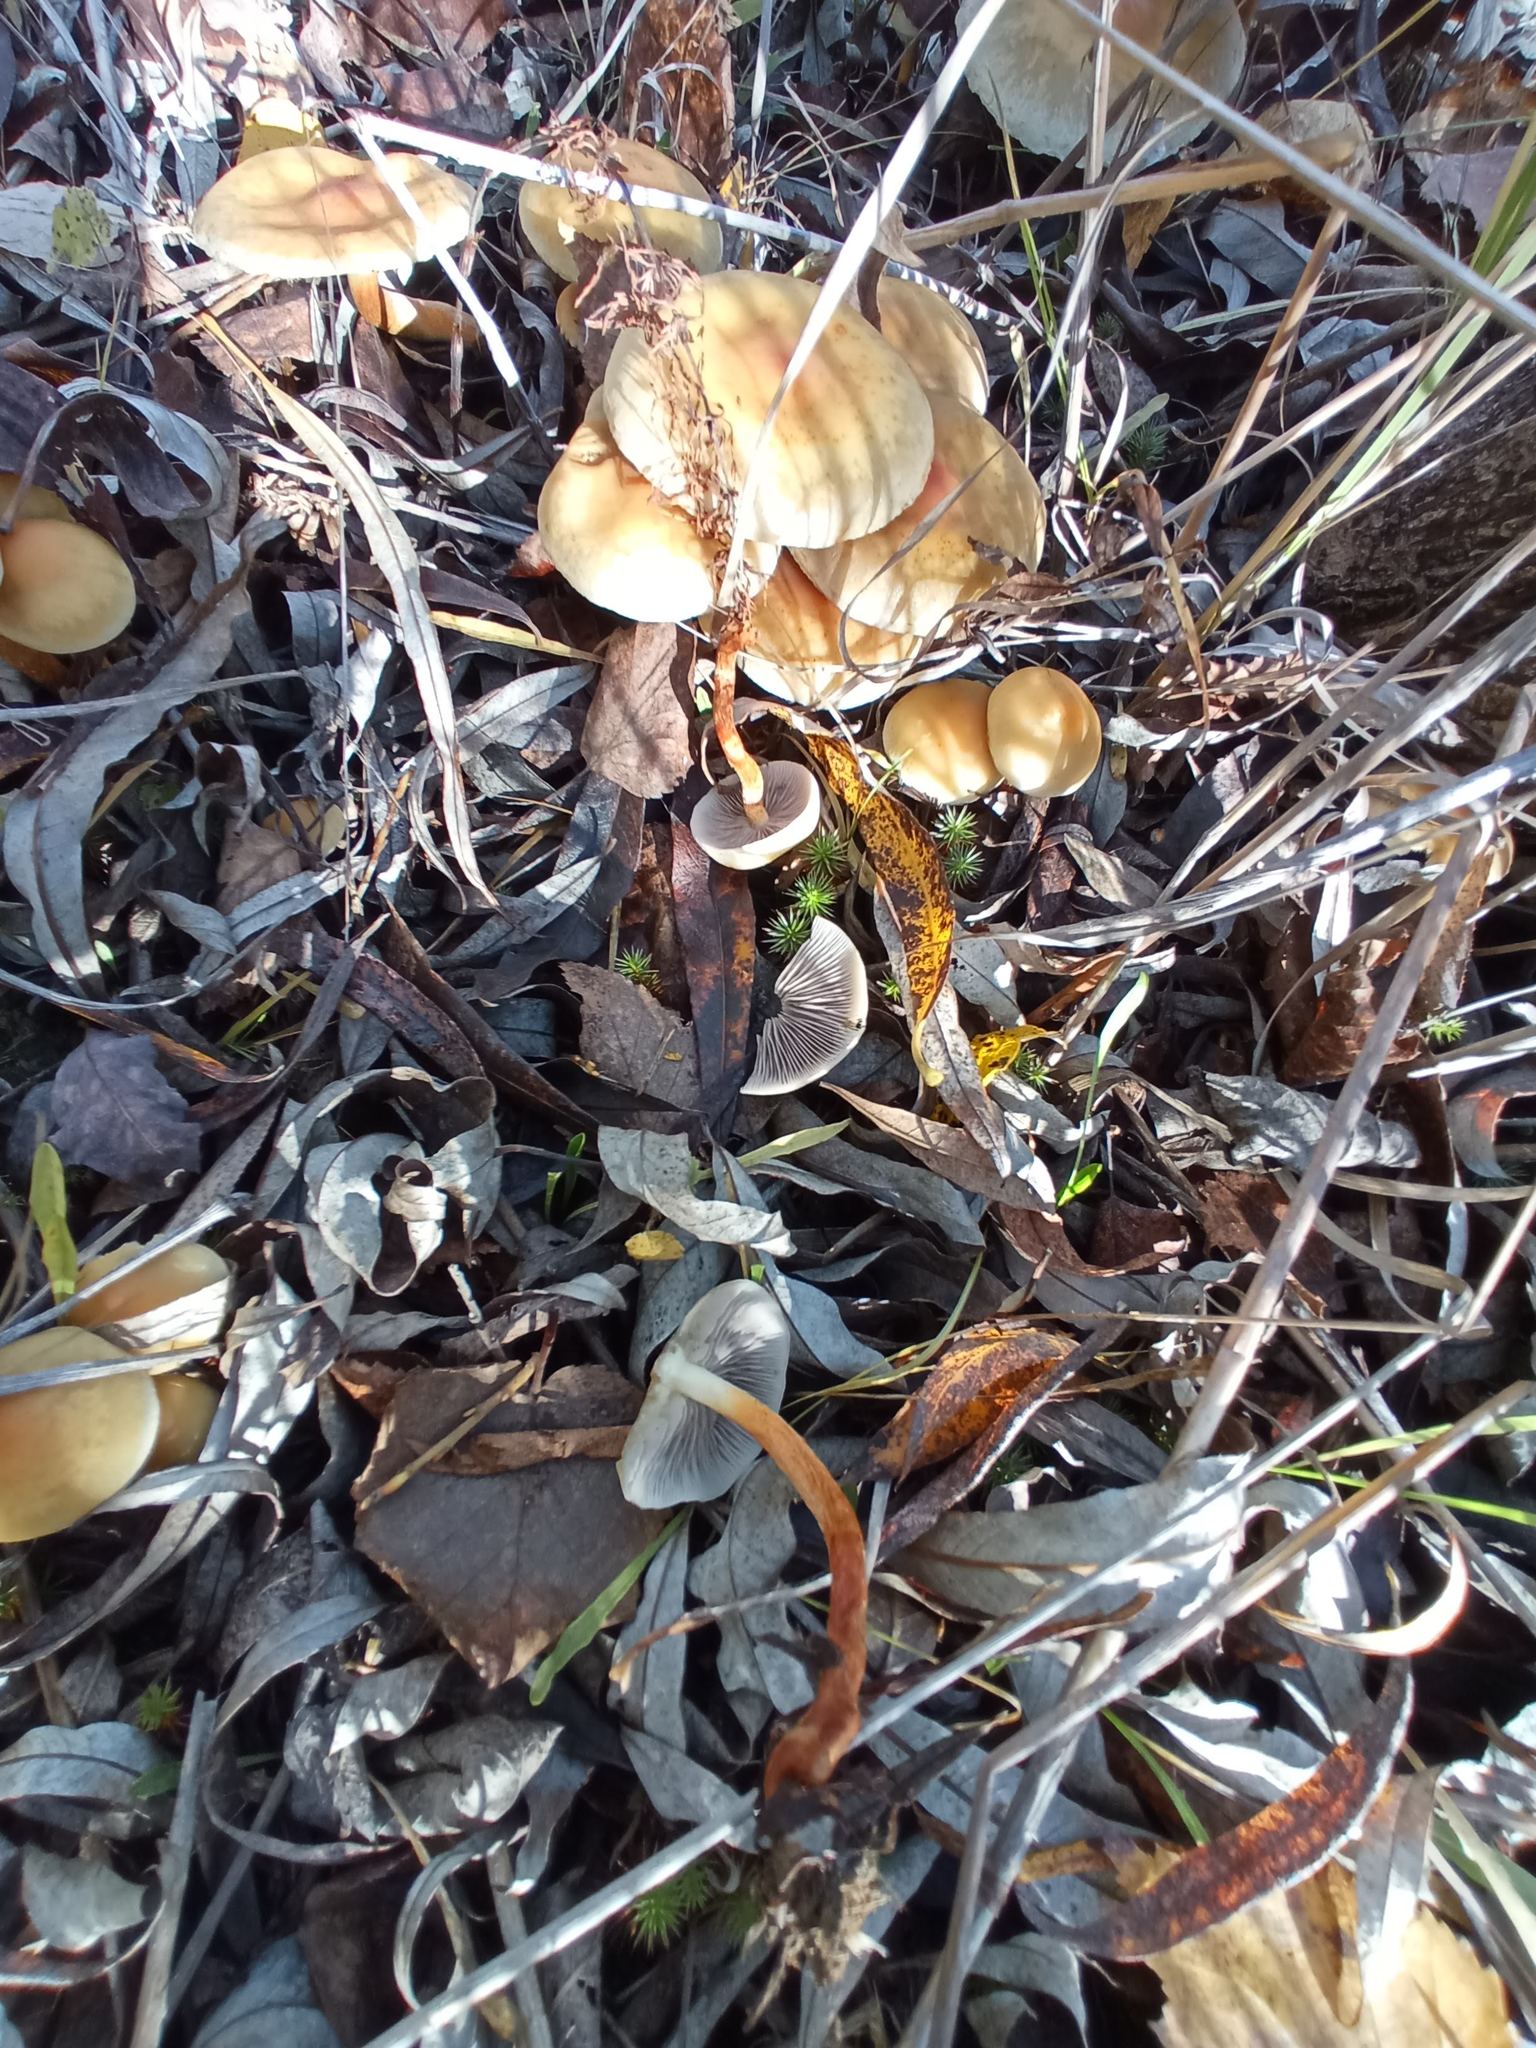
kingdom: Fungi
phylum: Basidiomycota
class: Agaricomycetes
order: Agaricales
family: Strophariaceae
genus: Hypholoma
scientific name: Hypholoma capnoides
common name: Conifer tuft
